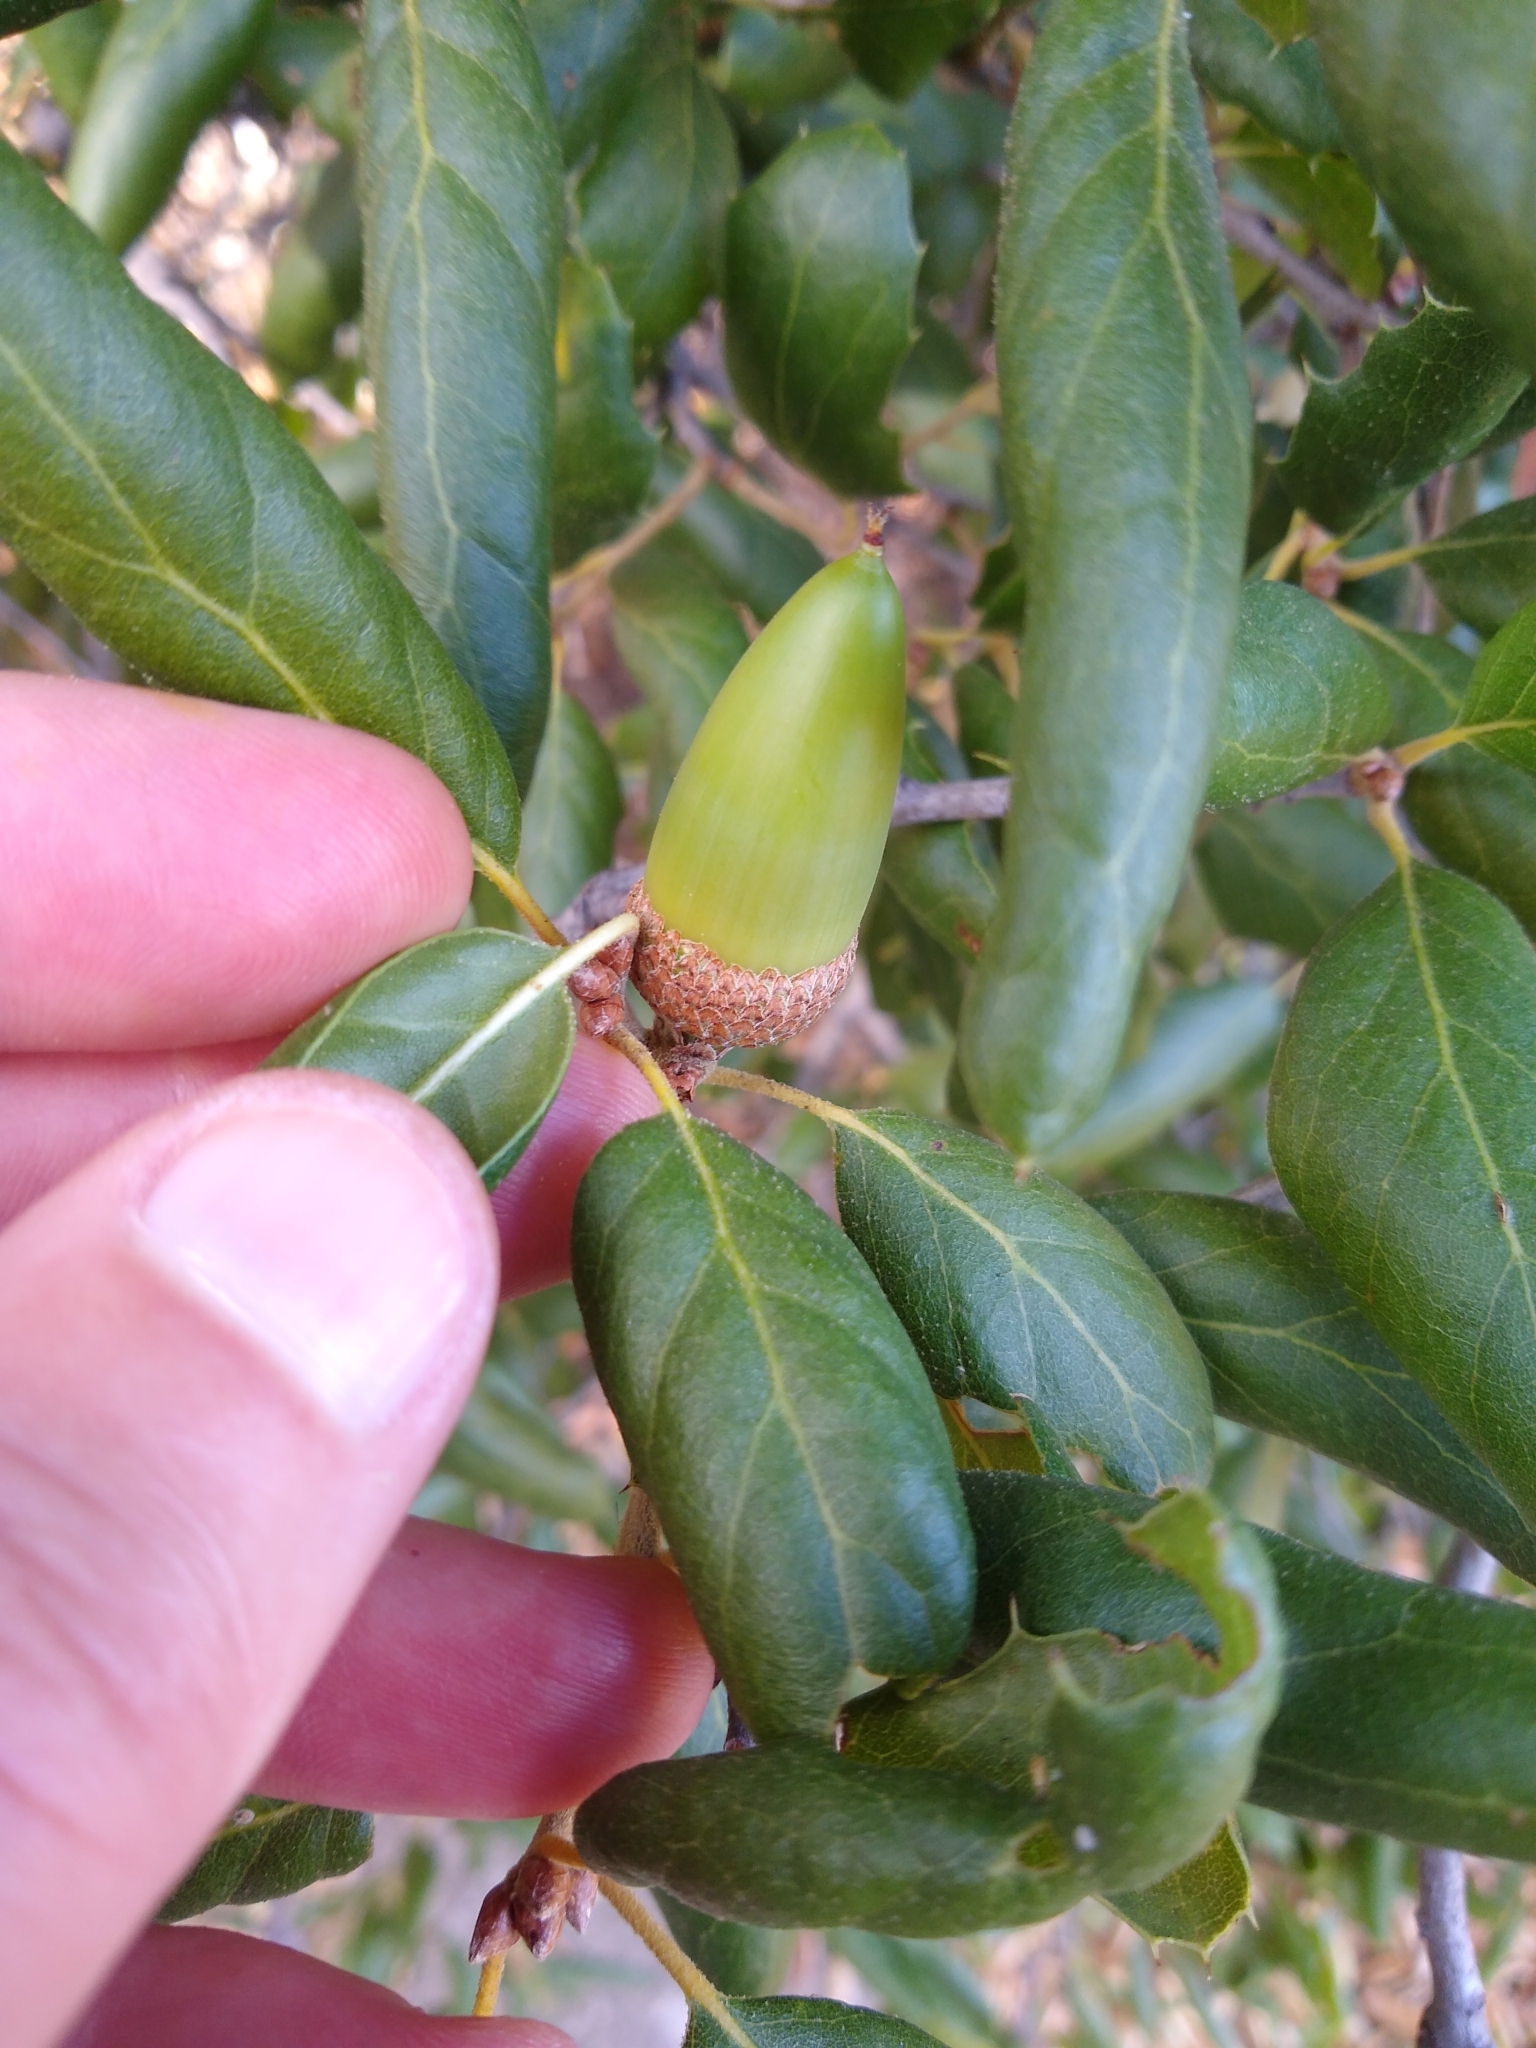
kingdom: Plantae
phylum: Tracheophyta
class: Magnoliopsida
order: Fagales
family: Fagaceae
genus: Quercus
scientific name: Quercus agrifolia
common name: California live oak
